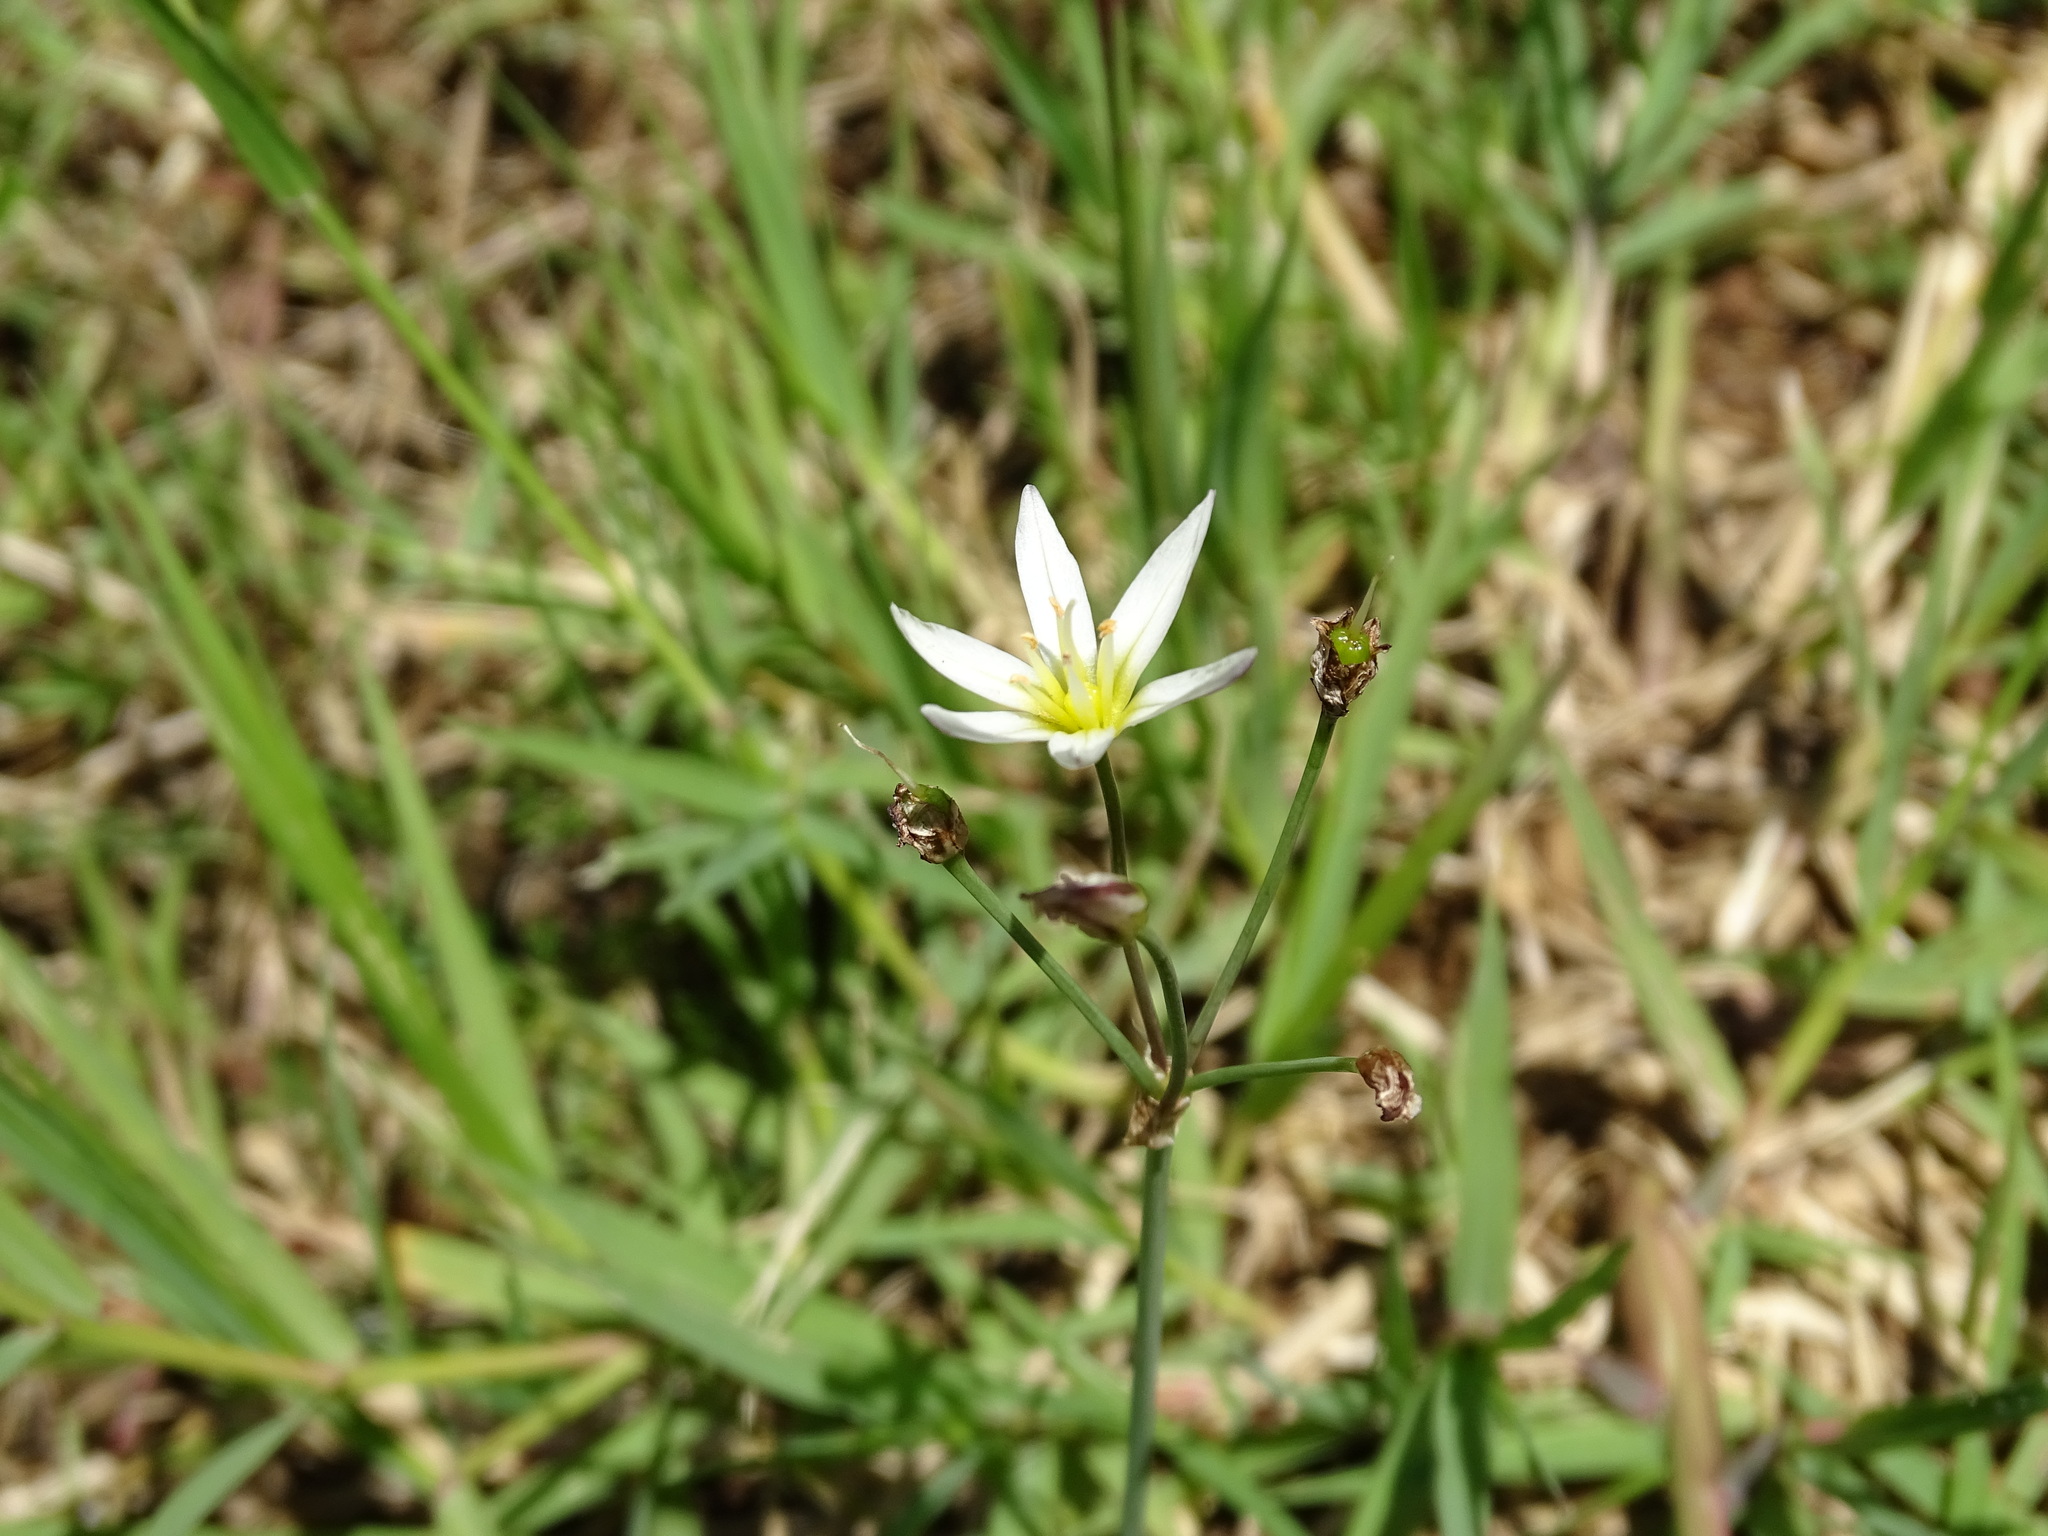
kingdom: Plantae
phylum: Tracheophyta
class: Liliopsida
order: Asparagales
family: Amaryllidaceae
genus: Nothoscordum
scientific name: Nothoscordum bivalve
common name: Crow-poison
